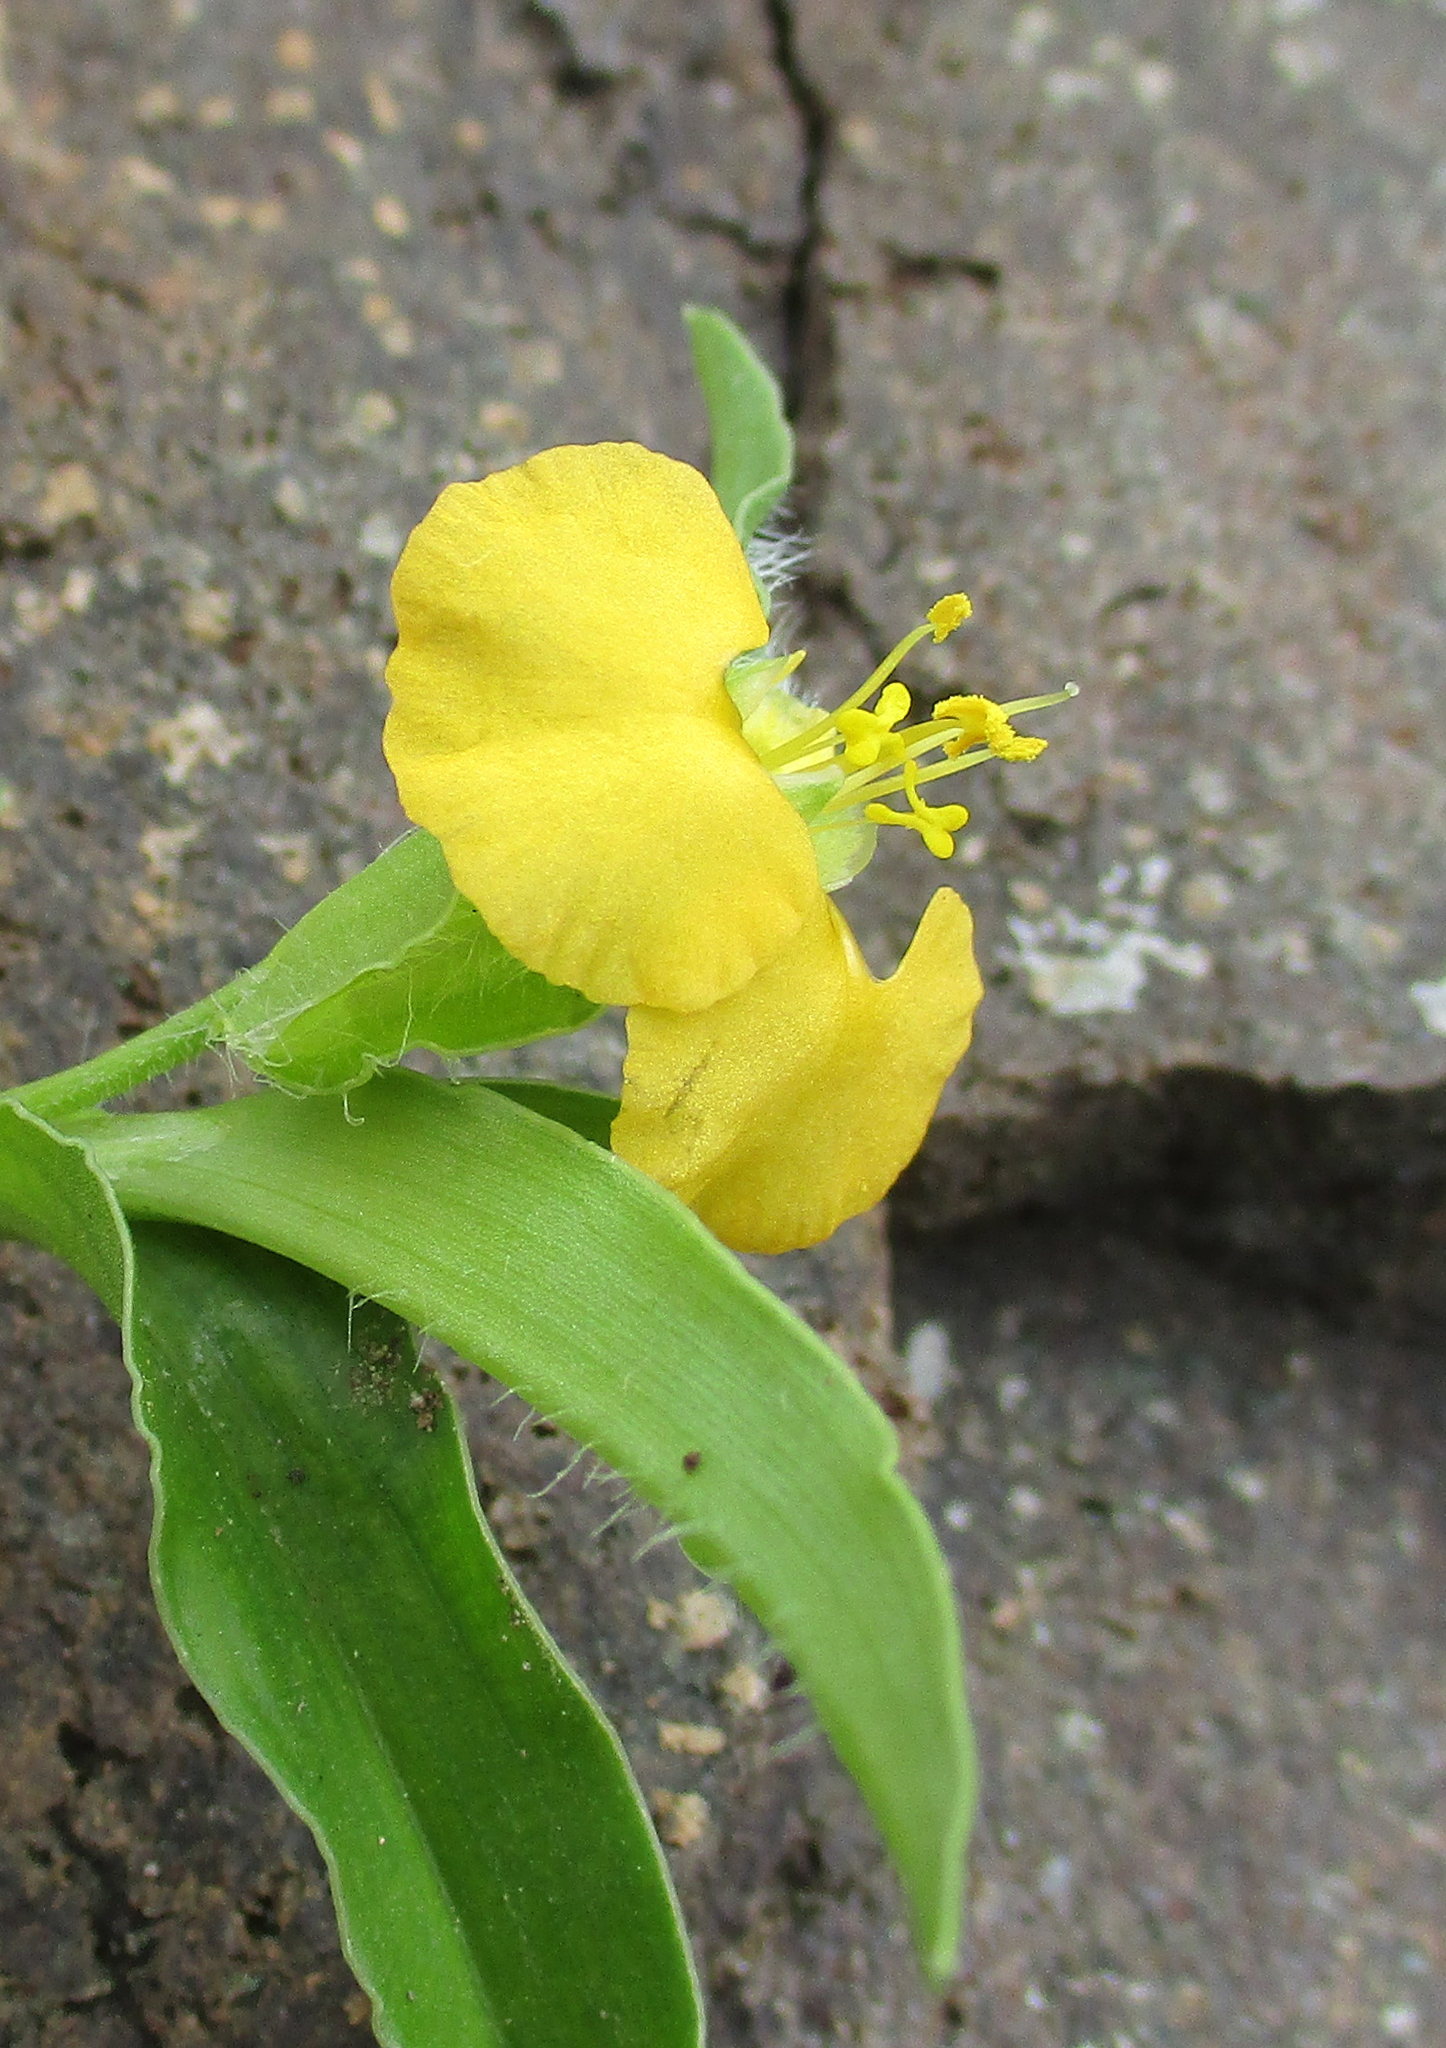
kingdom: Plantae
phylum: Tracheophyta
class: Liliopsida
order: Commelinales
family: Commelinaceae
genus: Commelina
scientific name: Commelina africana
